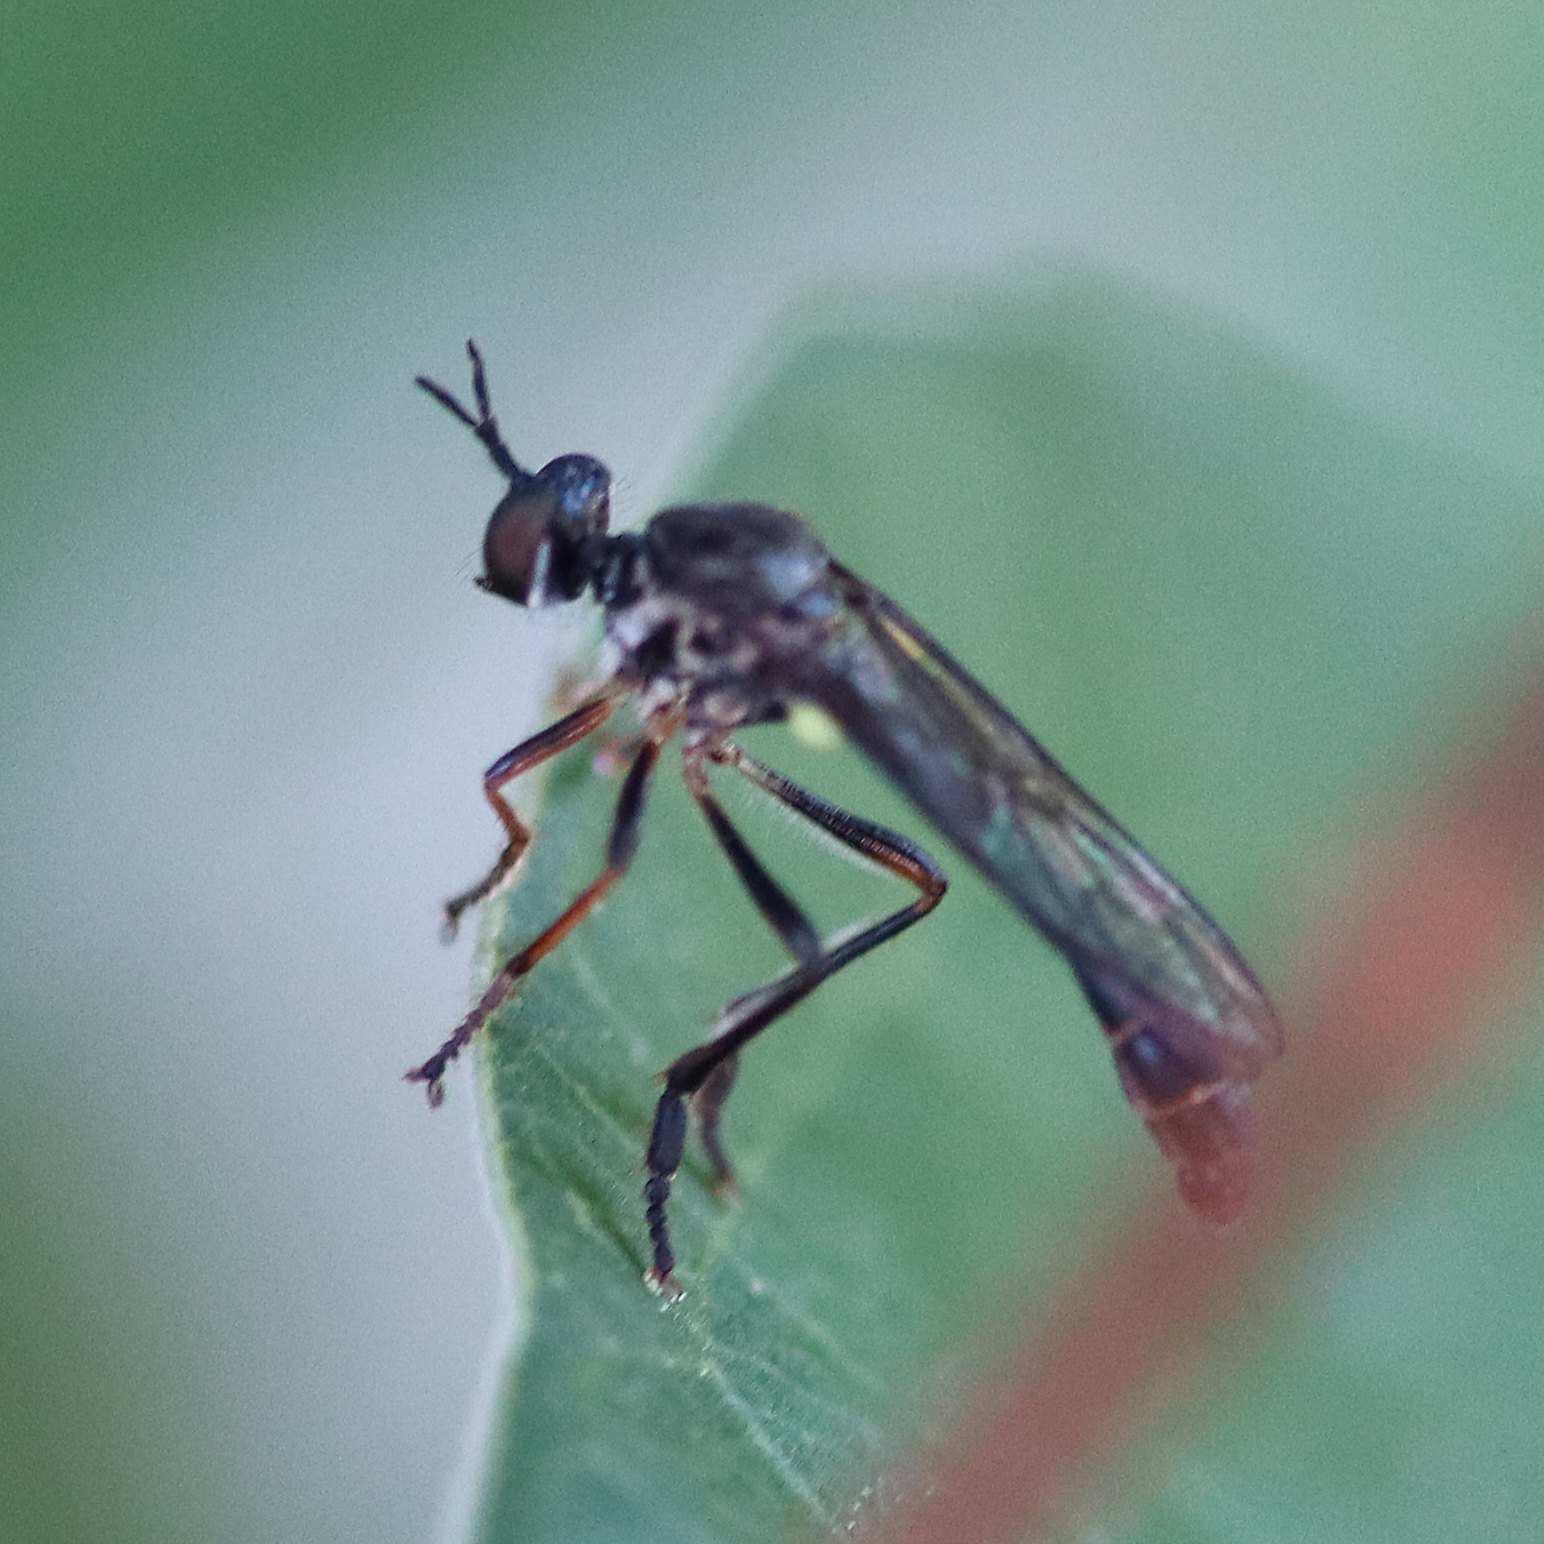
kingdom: Animalia
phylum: Arthropoda
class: Insecta
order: Diptera
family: Asilidae
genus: Dioctria
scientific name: Dioctria hyalipennis
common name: Stripe-legged robberfly
